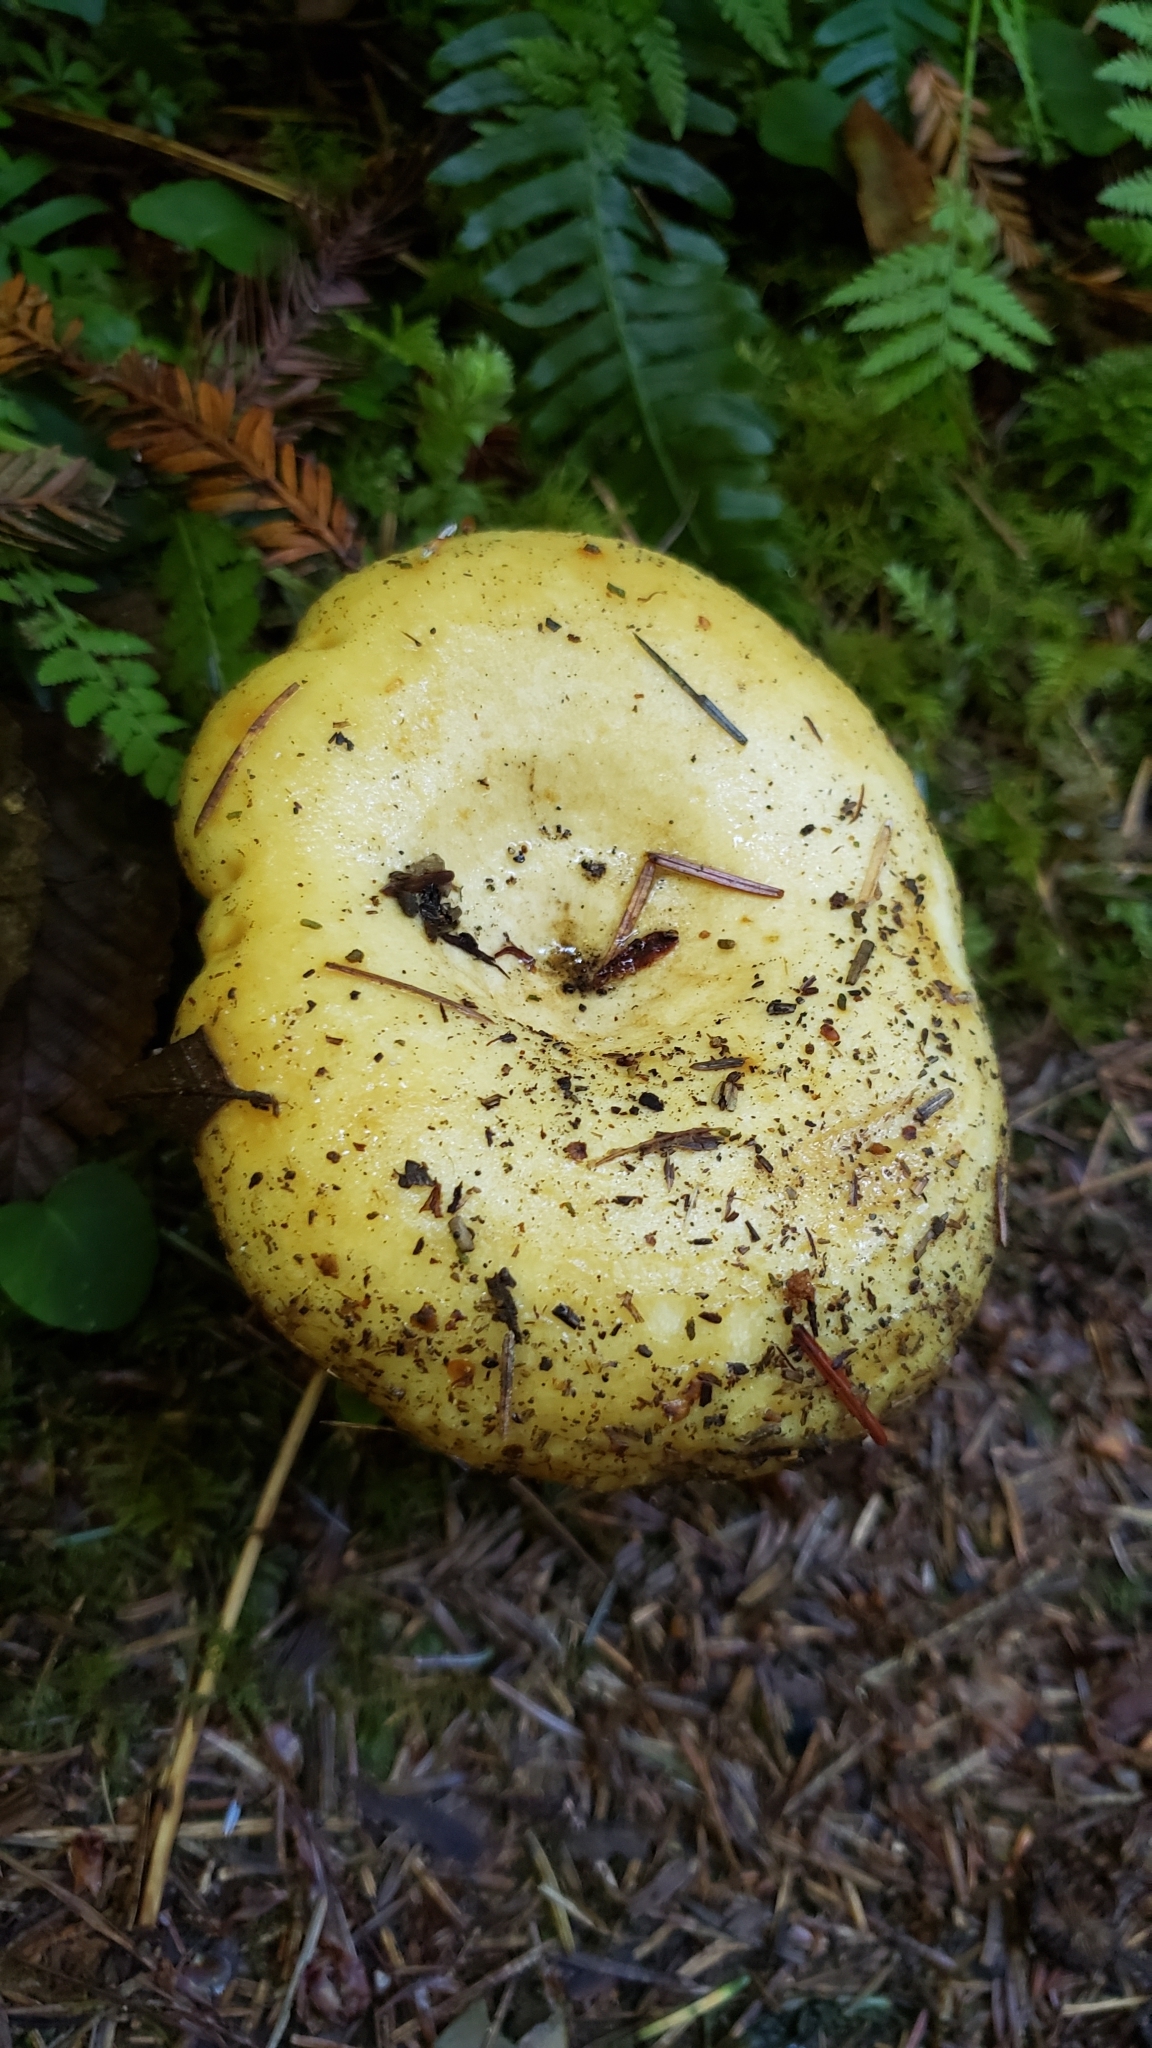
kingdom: Fungi
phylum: Basidiomycota
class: Agaricomycetes
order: Russulales
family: Russulaceae
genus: Lactarius
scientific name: Lactarius scrobiculatus
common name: Spotted milkcap
